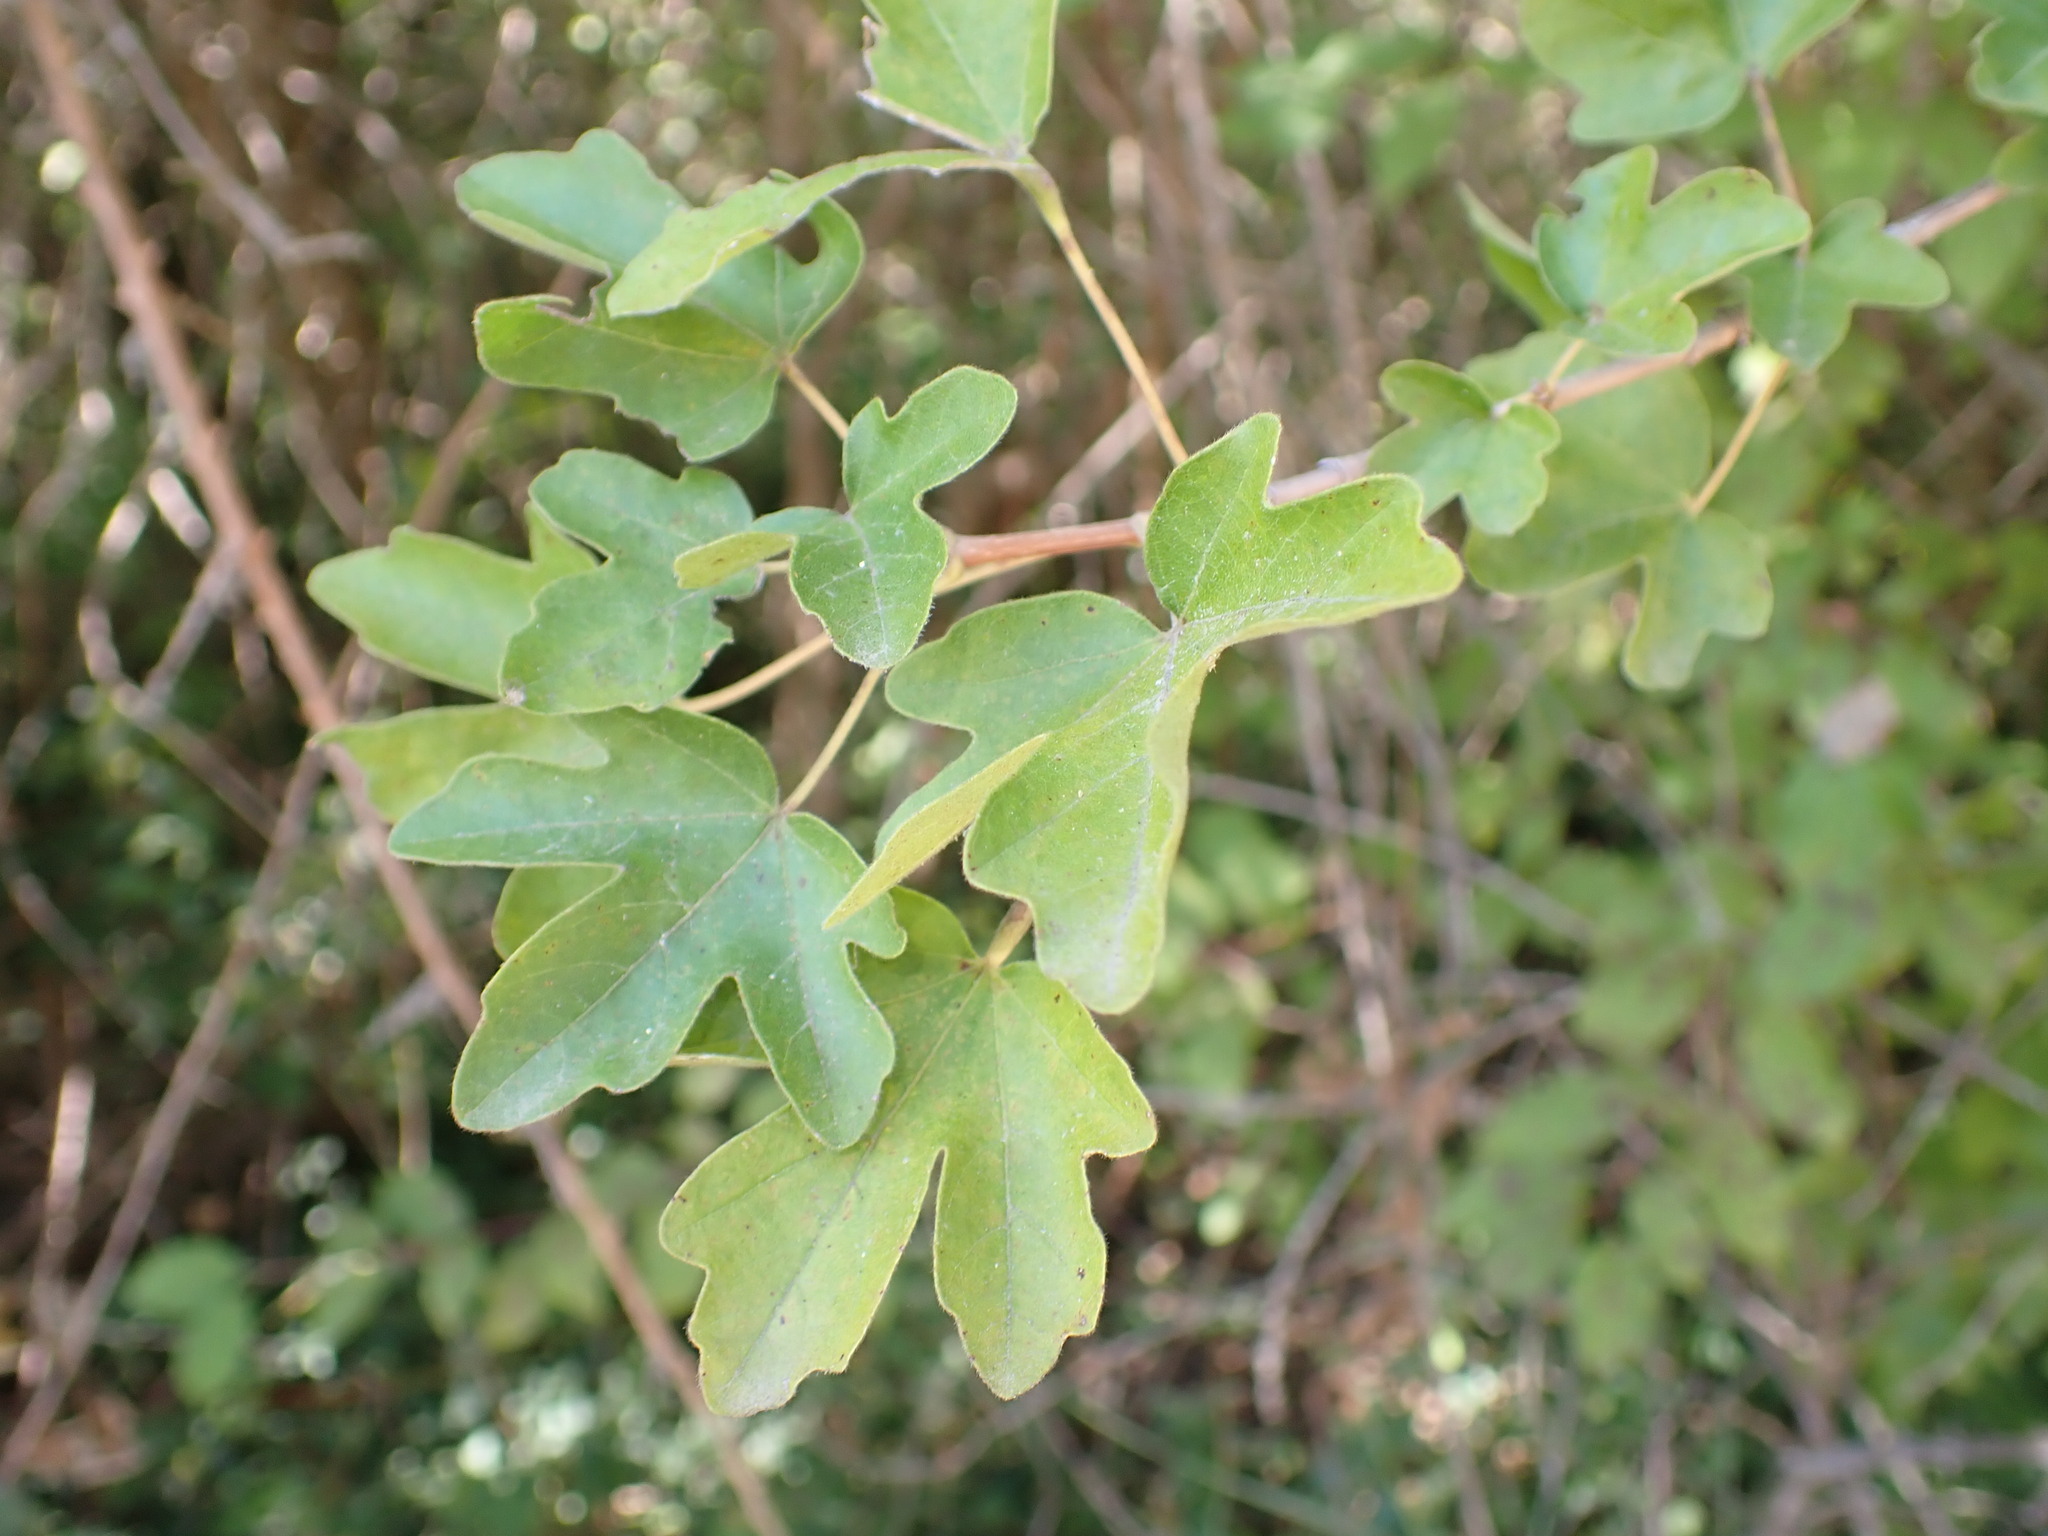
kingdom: Plantae
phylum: Tracheophyta
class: Magnoliopsida
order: Sapindales
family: Sapindaceae
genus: Acer
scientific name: Acer campestre
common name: Field maple
